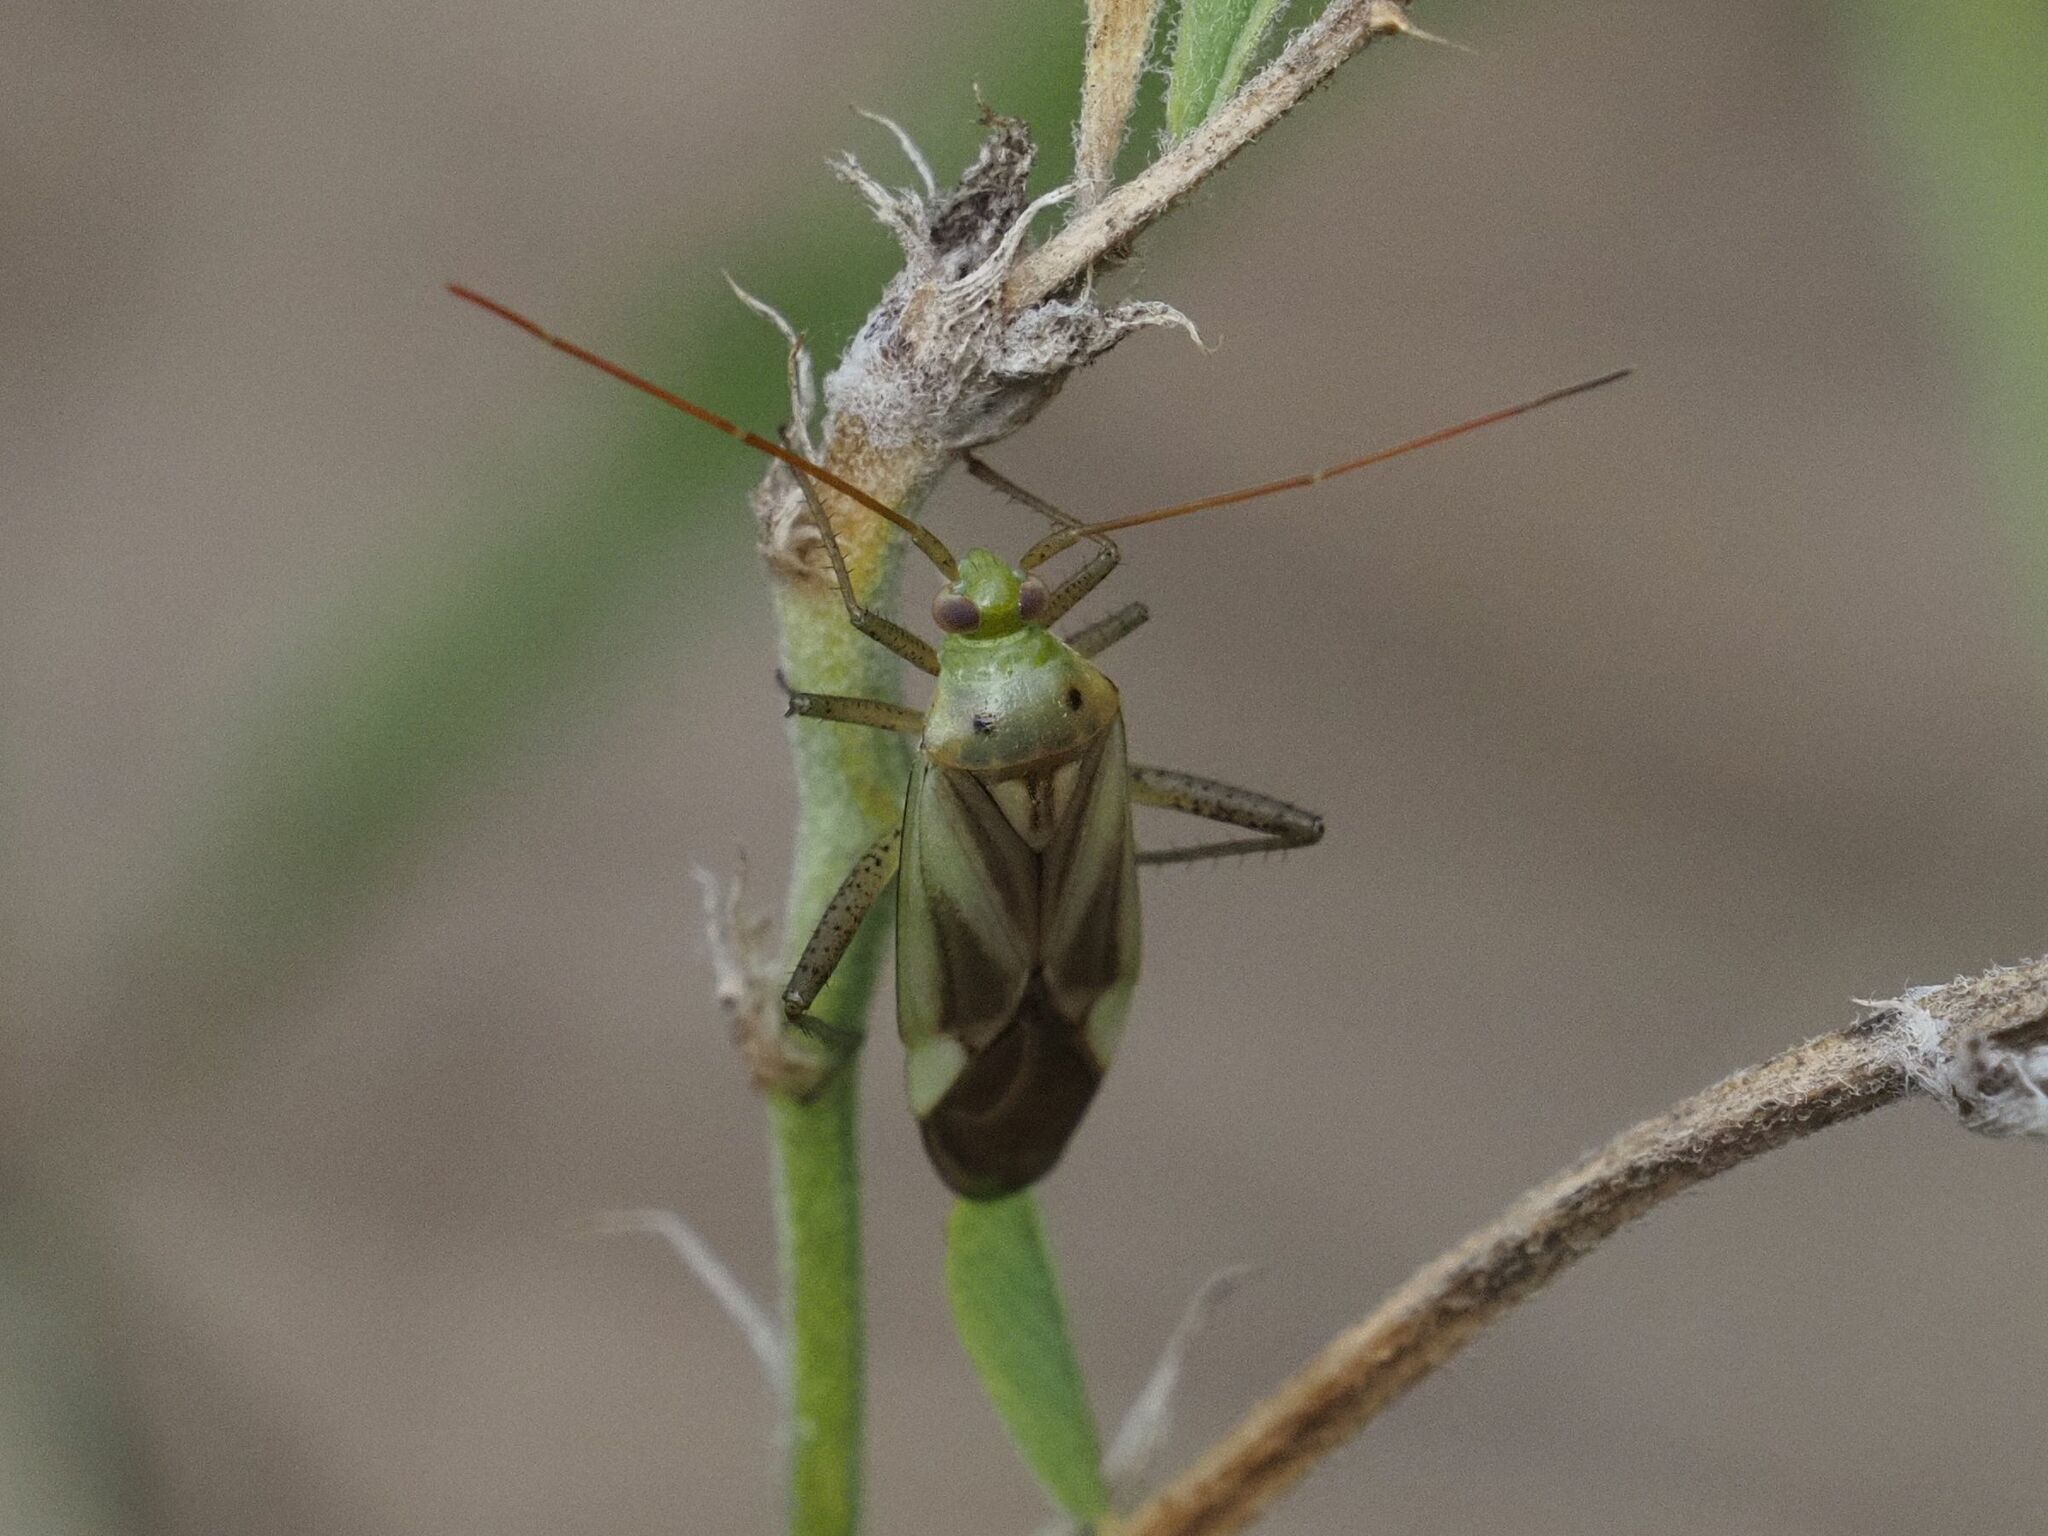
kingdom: Animalia
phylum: Arthropoda
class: Insecta
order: Hemiptera
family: Miridae
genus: Adelphocoris
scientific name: Adelphocoris lineolatus
